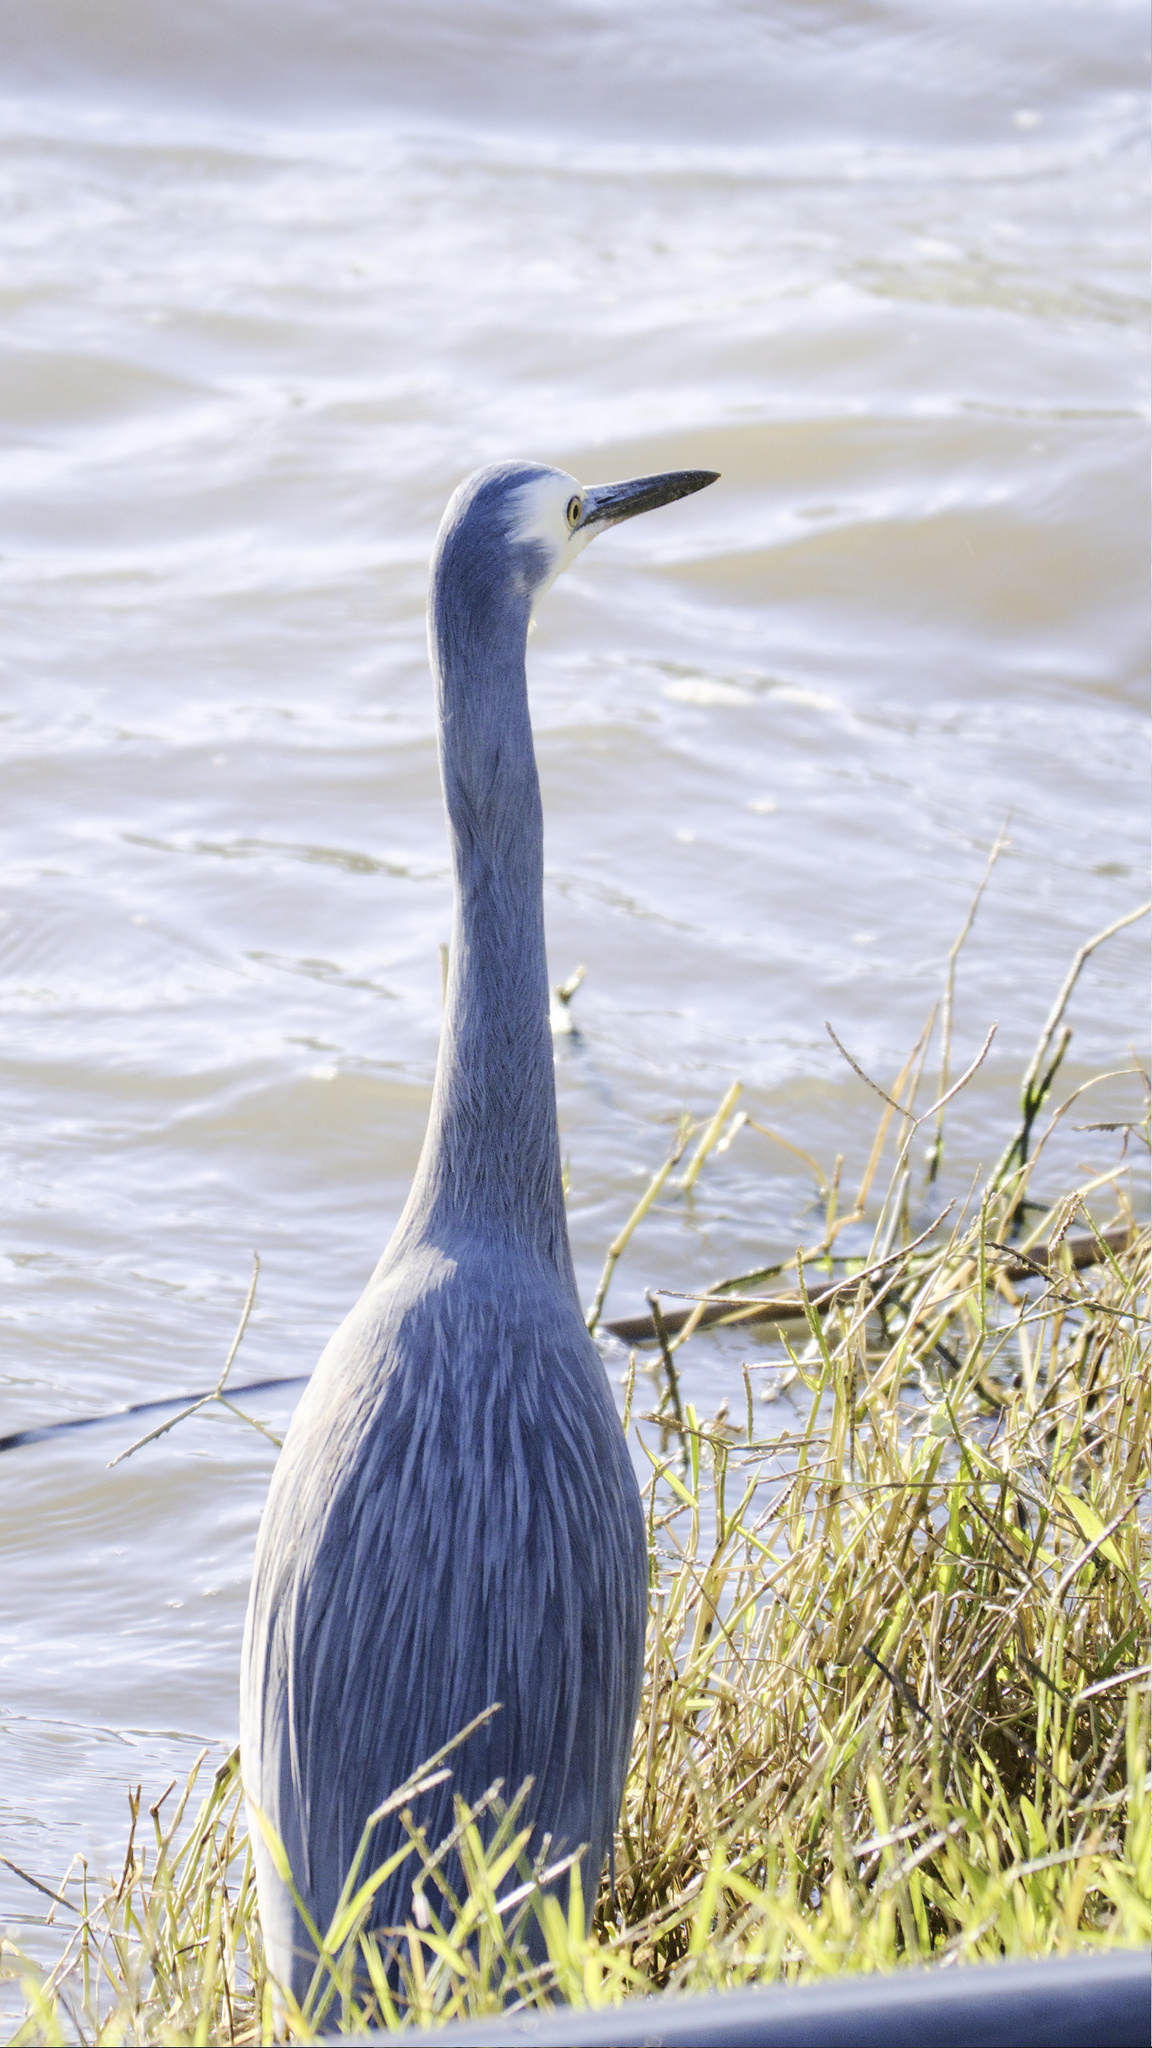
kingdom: Animalia
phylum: Chordata
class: Aves
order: Pelecaniformes
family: Ardeidae
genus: Egretta
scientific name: Egretta novaehollandiae
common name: White-faced heron
